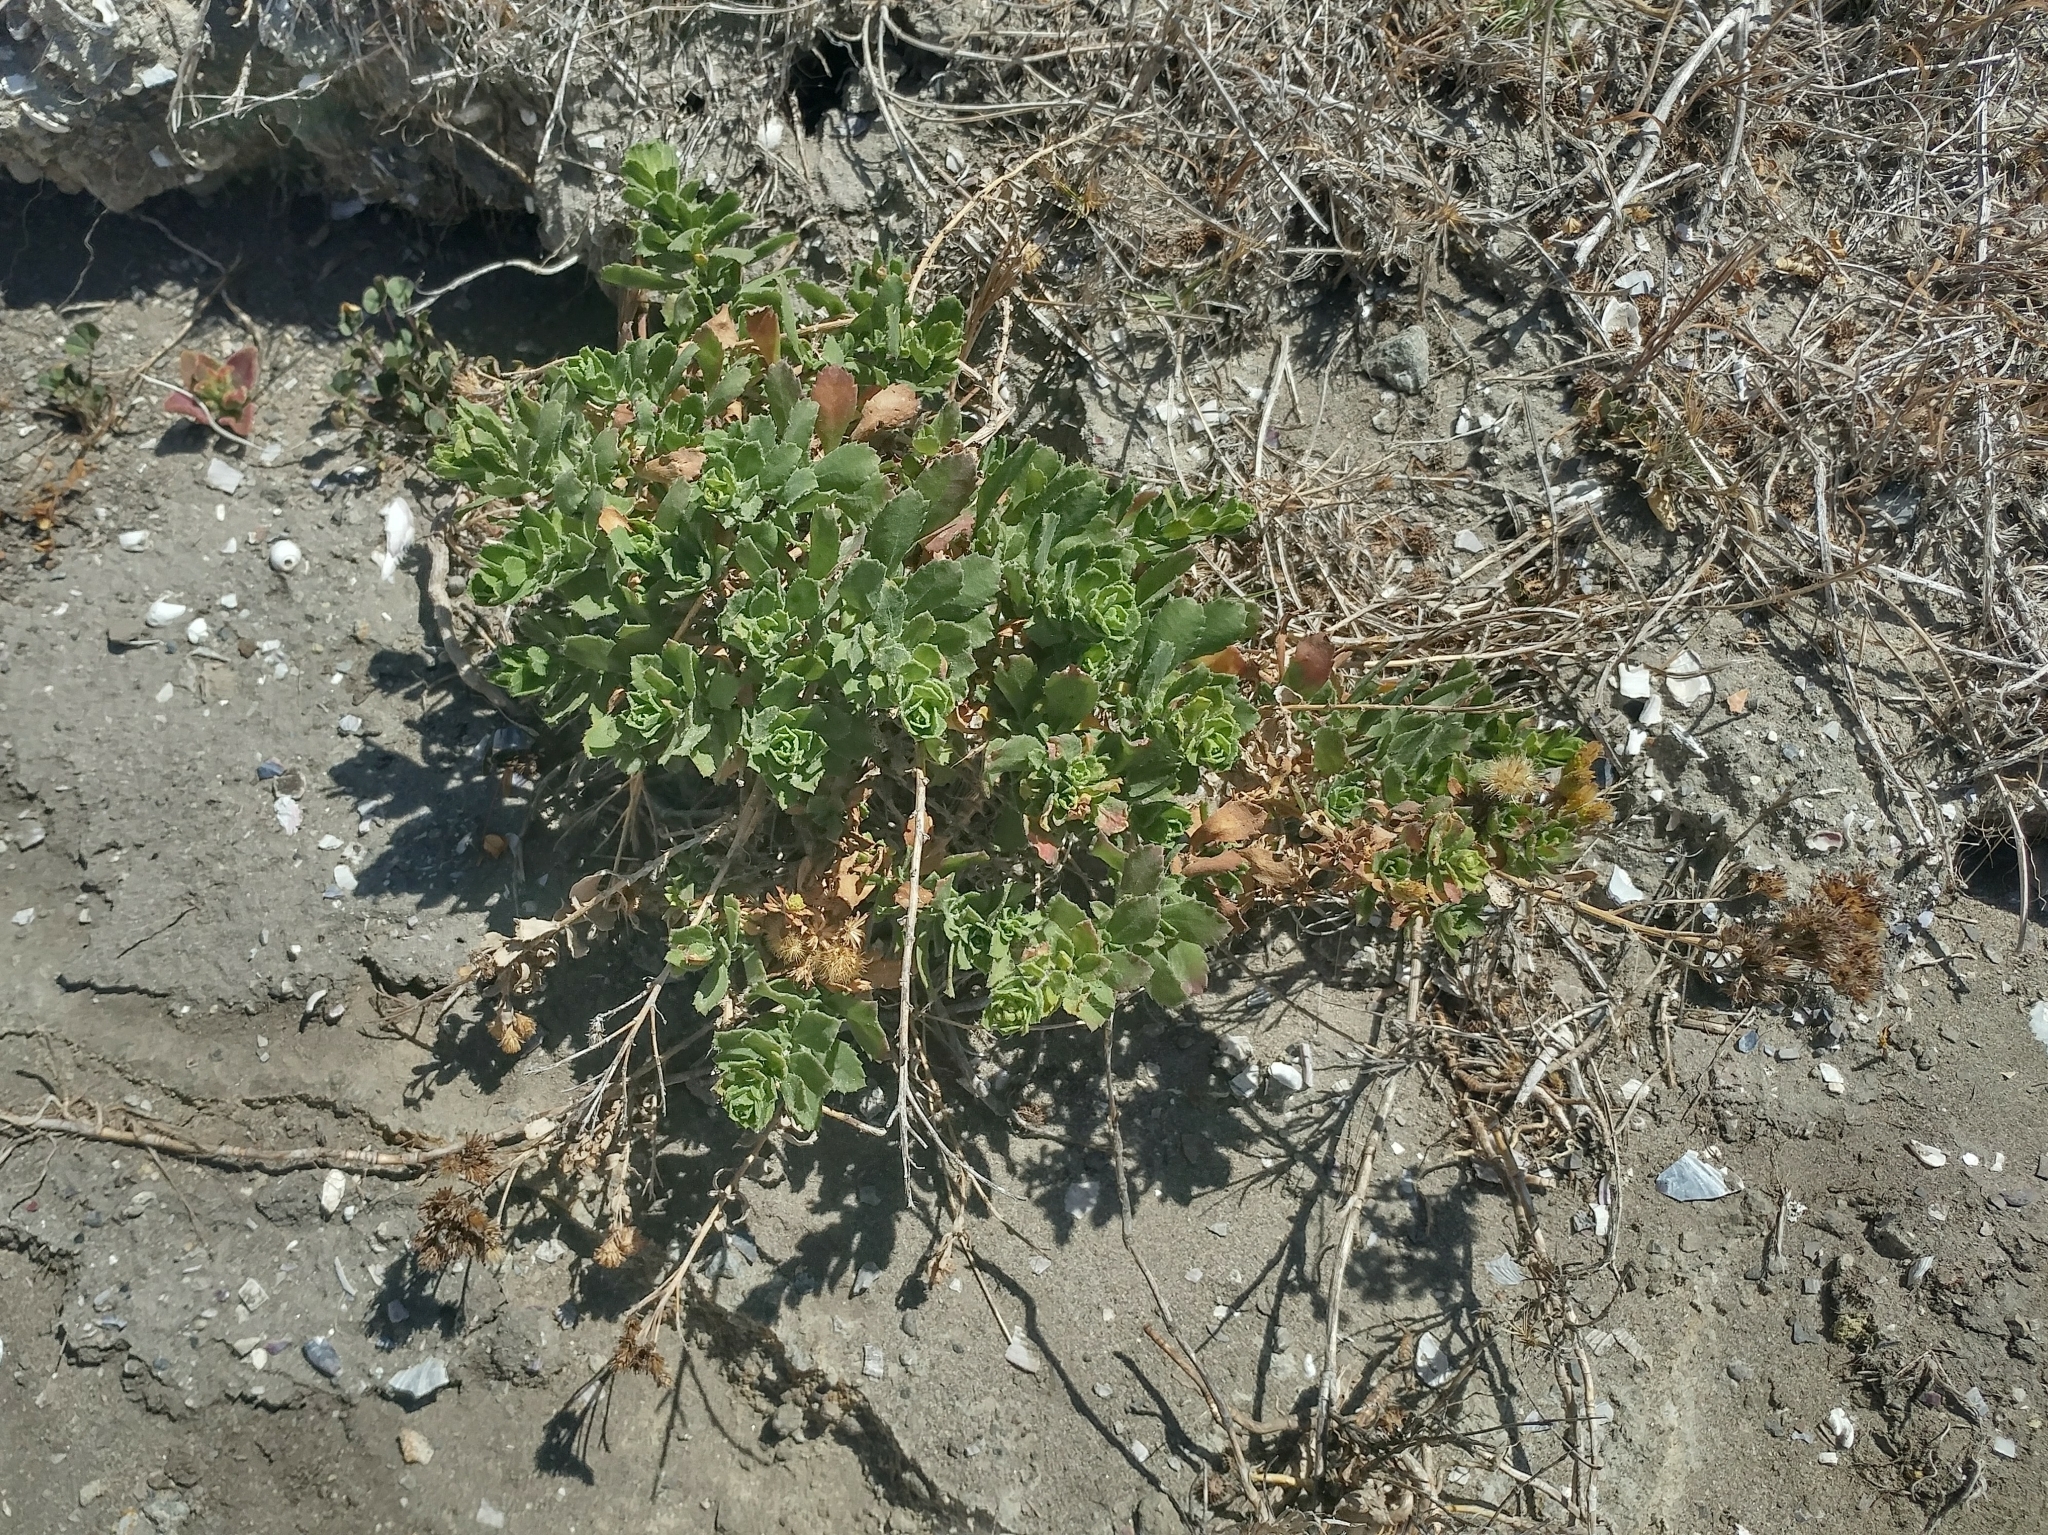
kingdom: Plantae
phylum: Tracheophyta
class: Magnoliopsida
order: Asterales
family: Asteraceae
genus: Isocoma
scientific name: Isocoma menziesii
